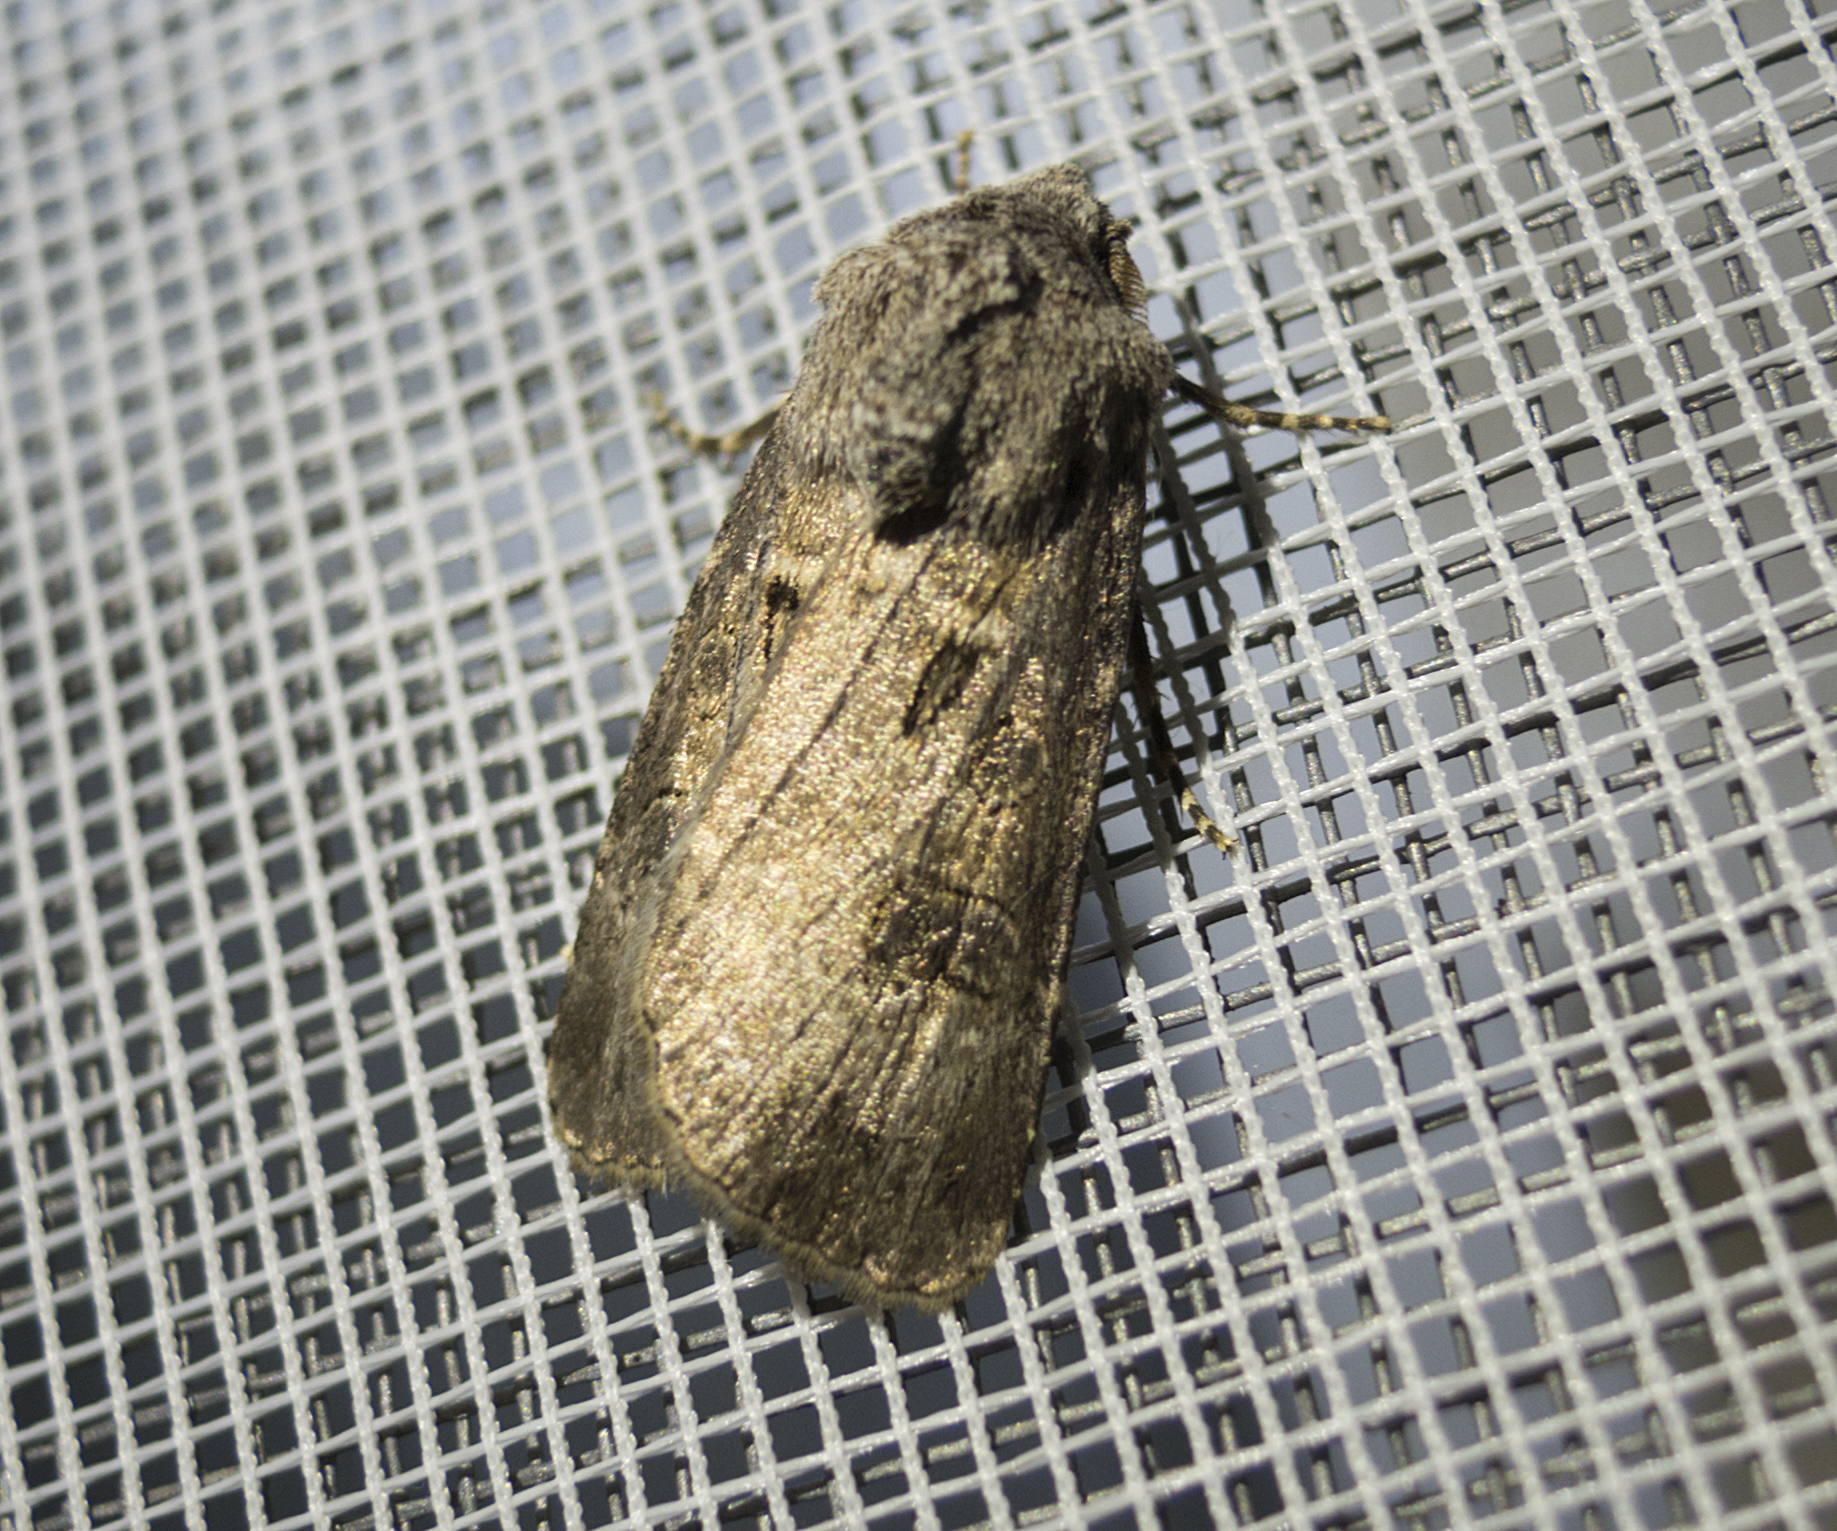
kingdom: Animalia
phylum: Arthropoda
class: Insecta
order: Lepidoptera
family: Noctuidae
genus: Xestia
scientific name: Xestia xanthographa
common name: Square-spot rustic
